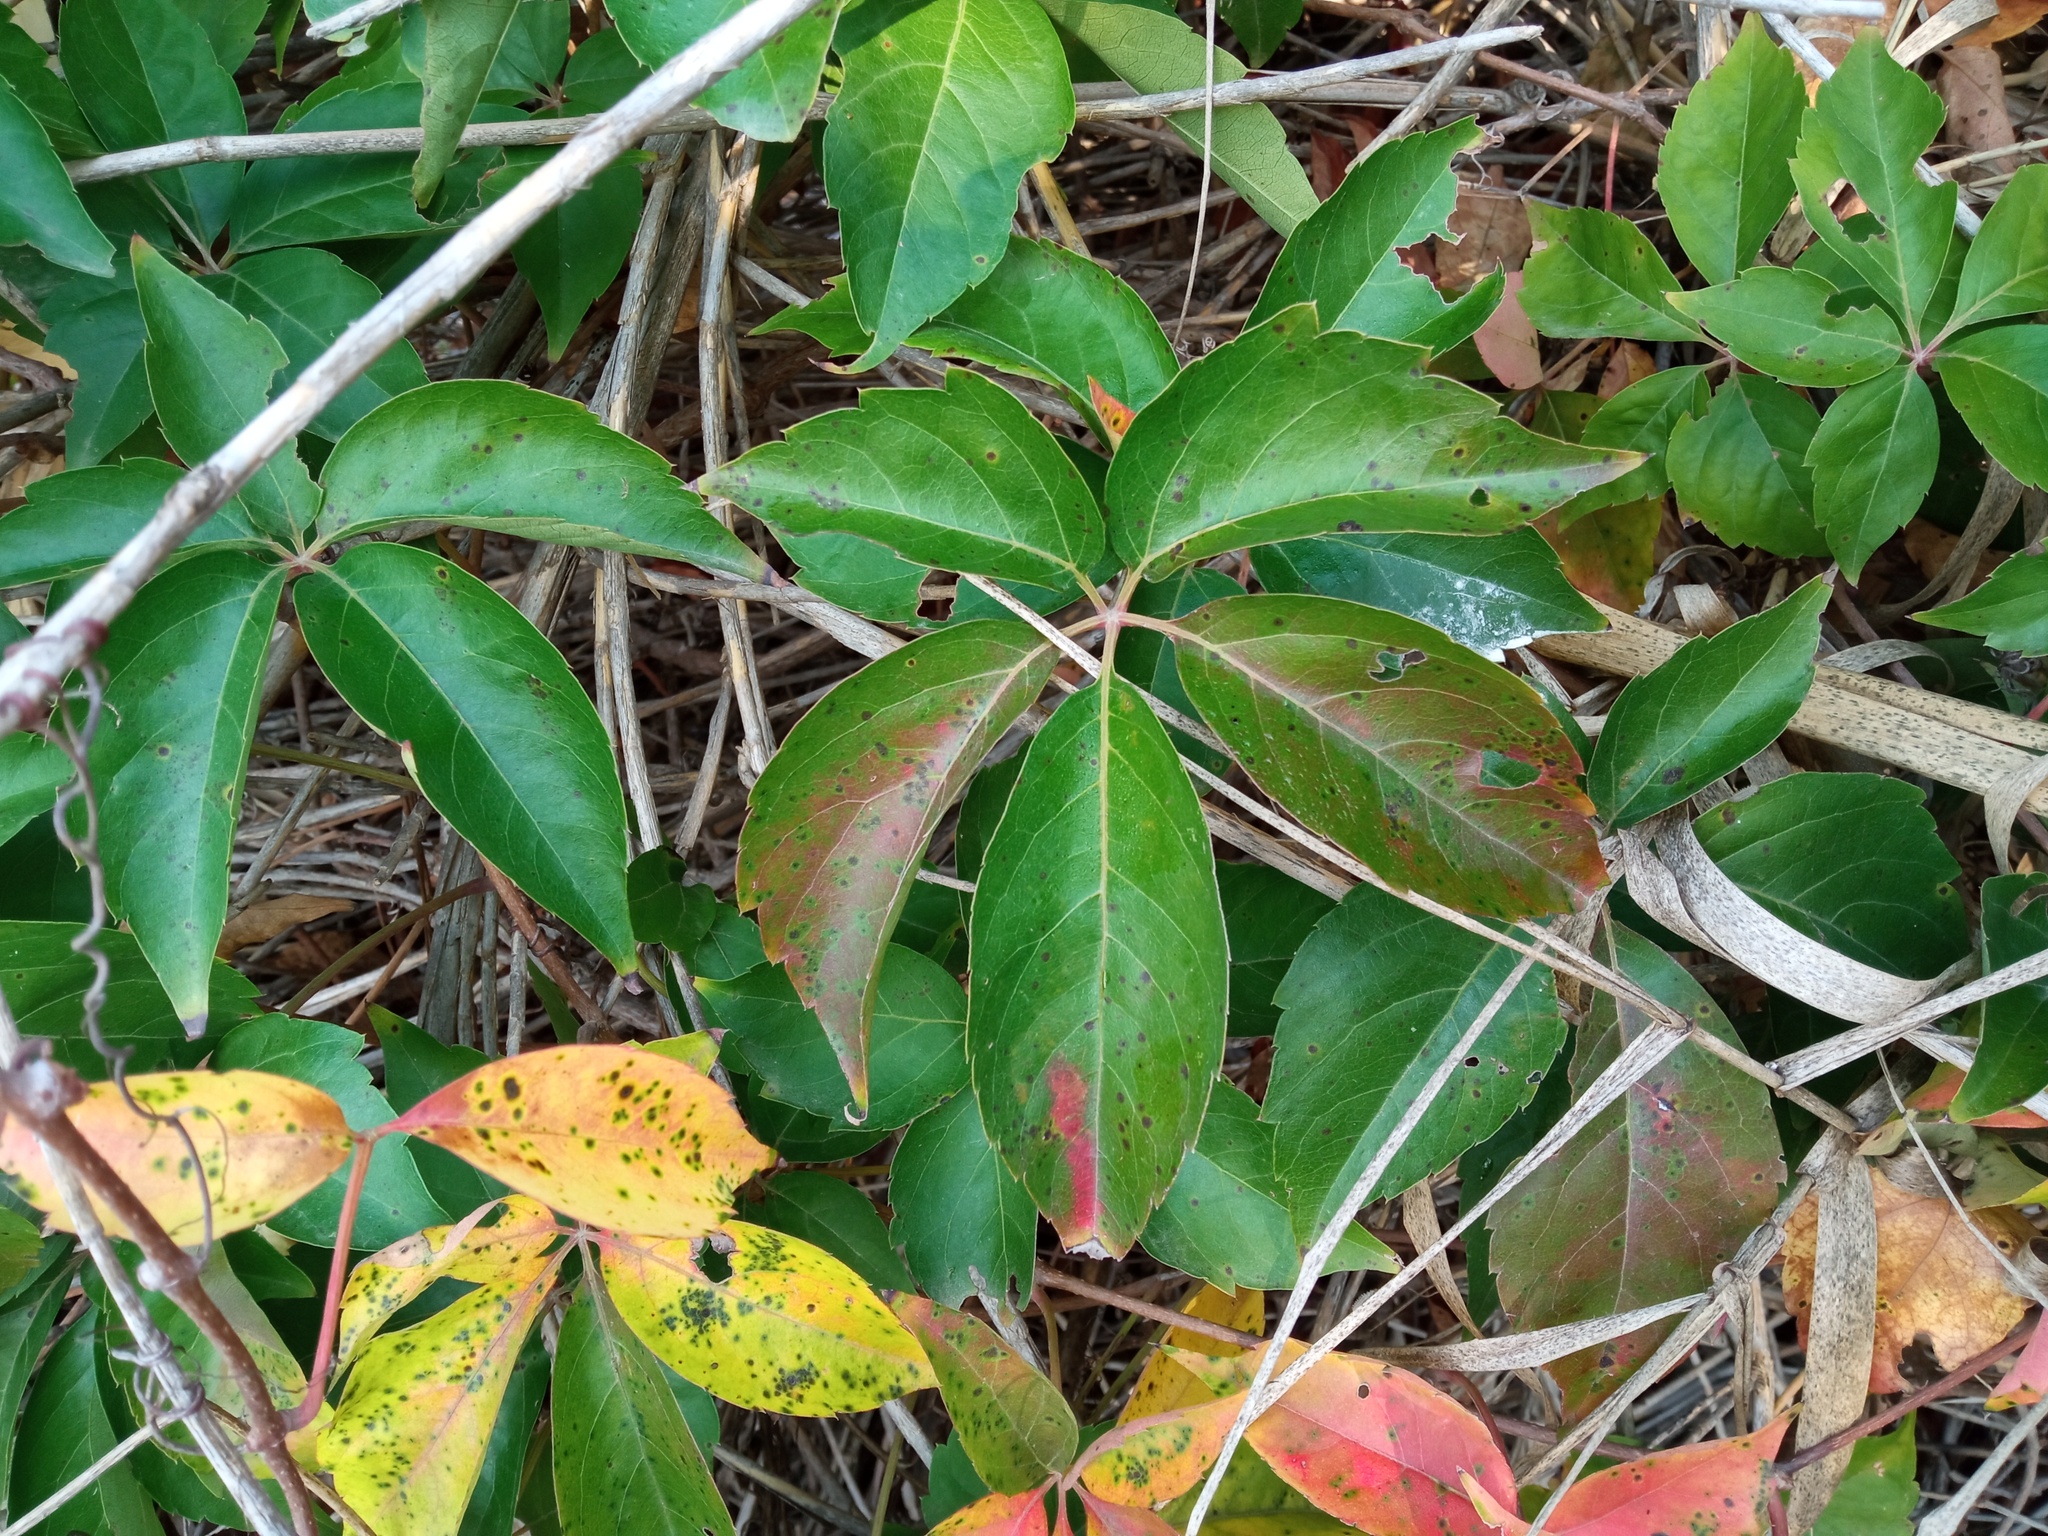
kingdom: Plantae
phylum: Tracheophyta
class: Magnoliopsida
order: Vitales
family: Vitaceae
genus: Parthenocissus
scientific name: Parthenocissus inserta
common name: False virginia-creeper
